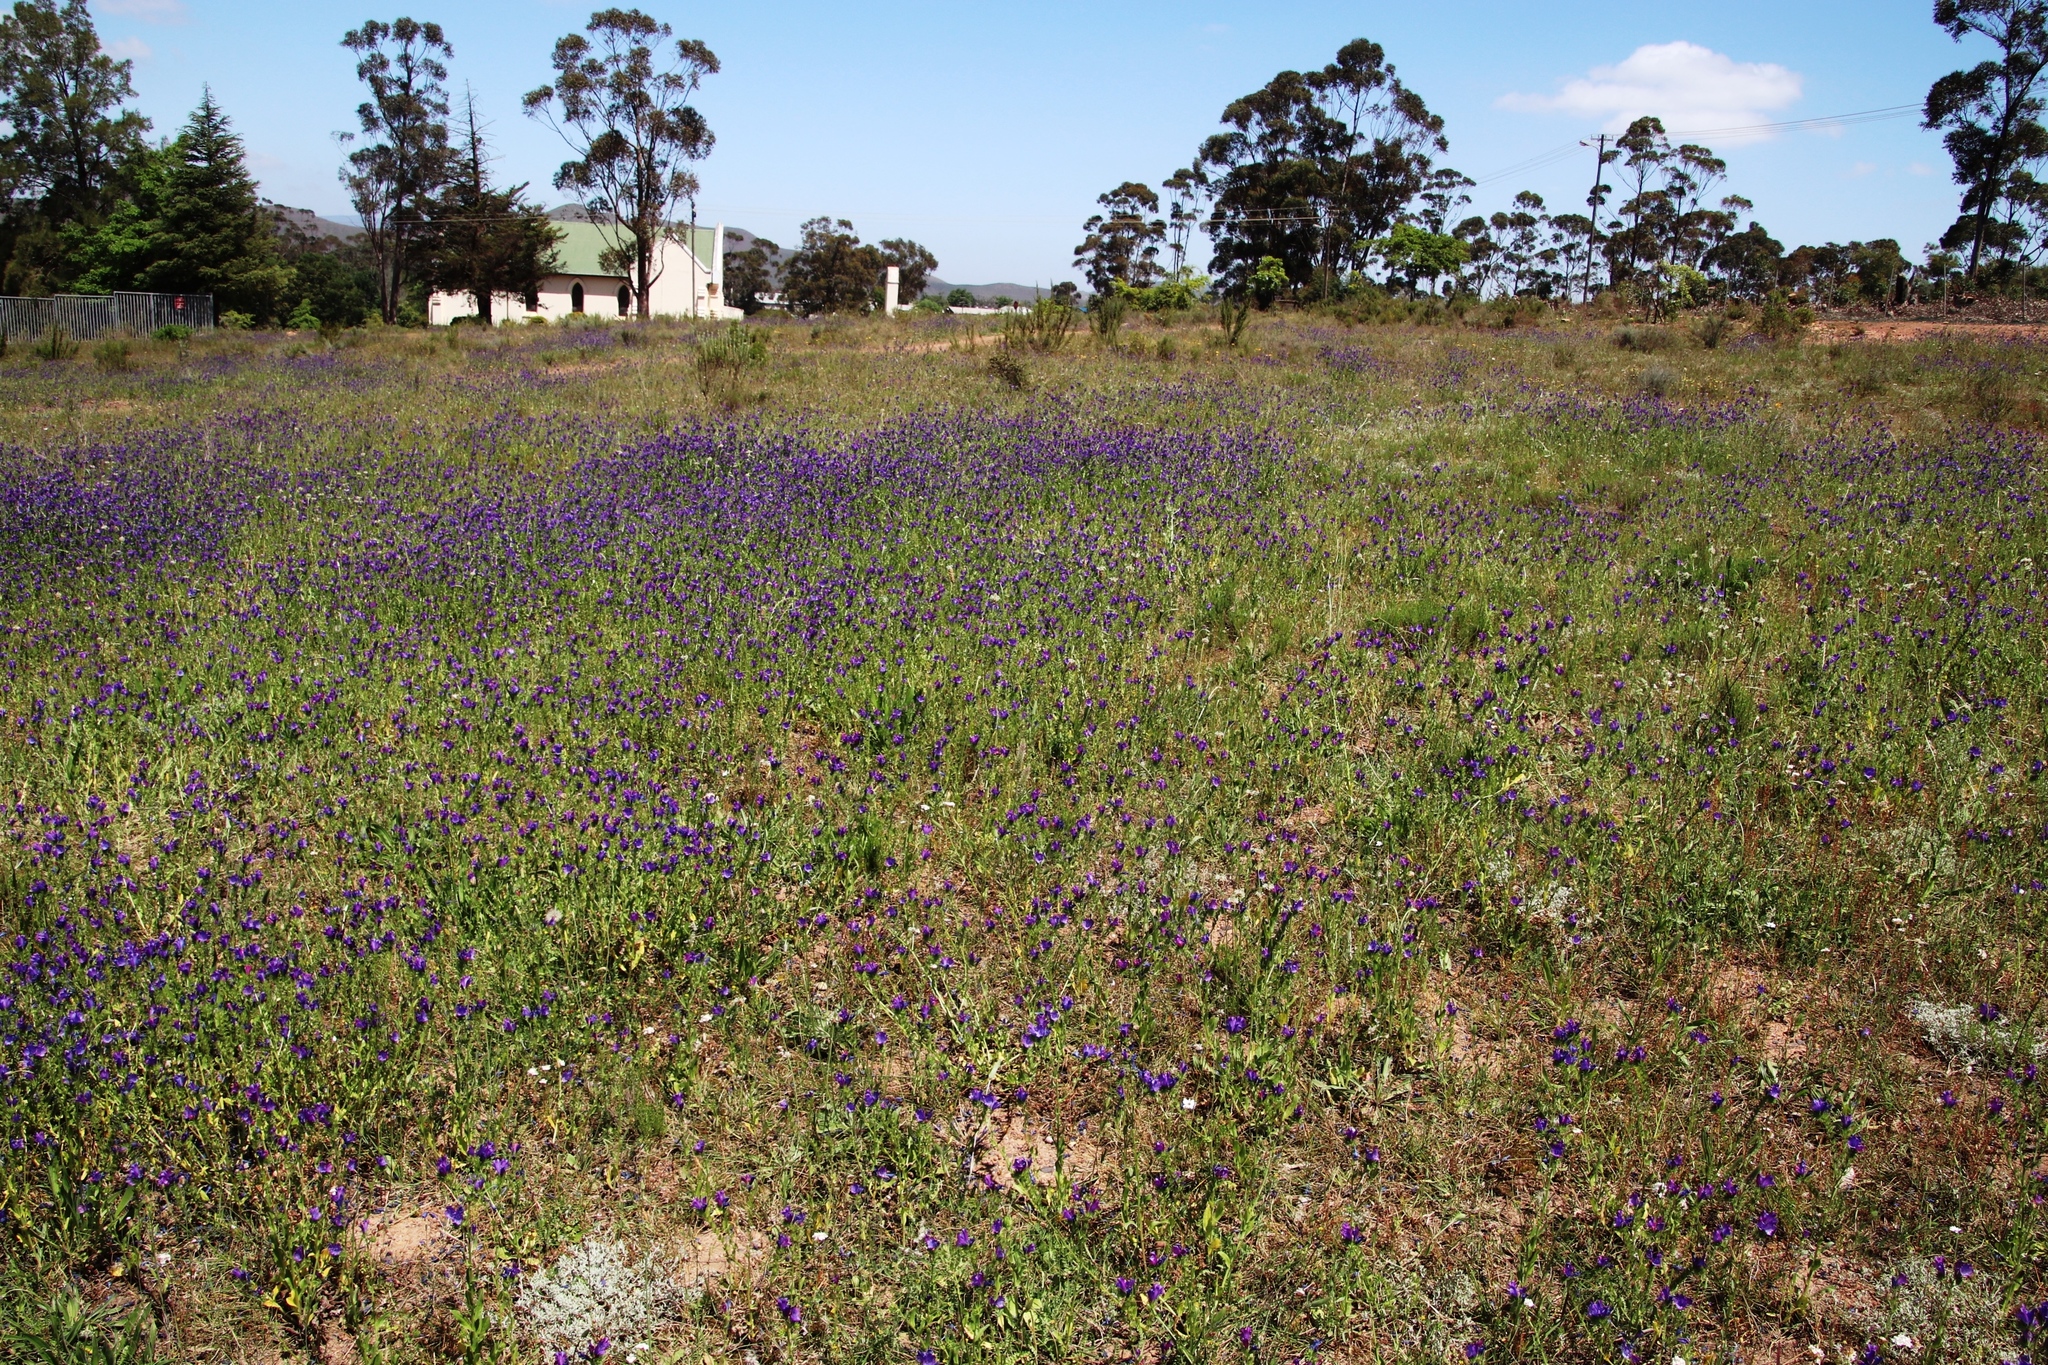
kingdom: Plantae
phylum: Tracheophyta
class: Magnoliopsida
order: Lamiales
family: Plantaginaceae
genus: Plantago
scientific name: Plantago lanceolata
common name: Ribwort plantain
